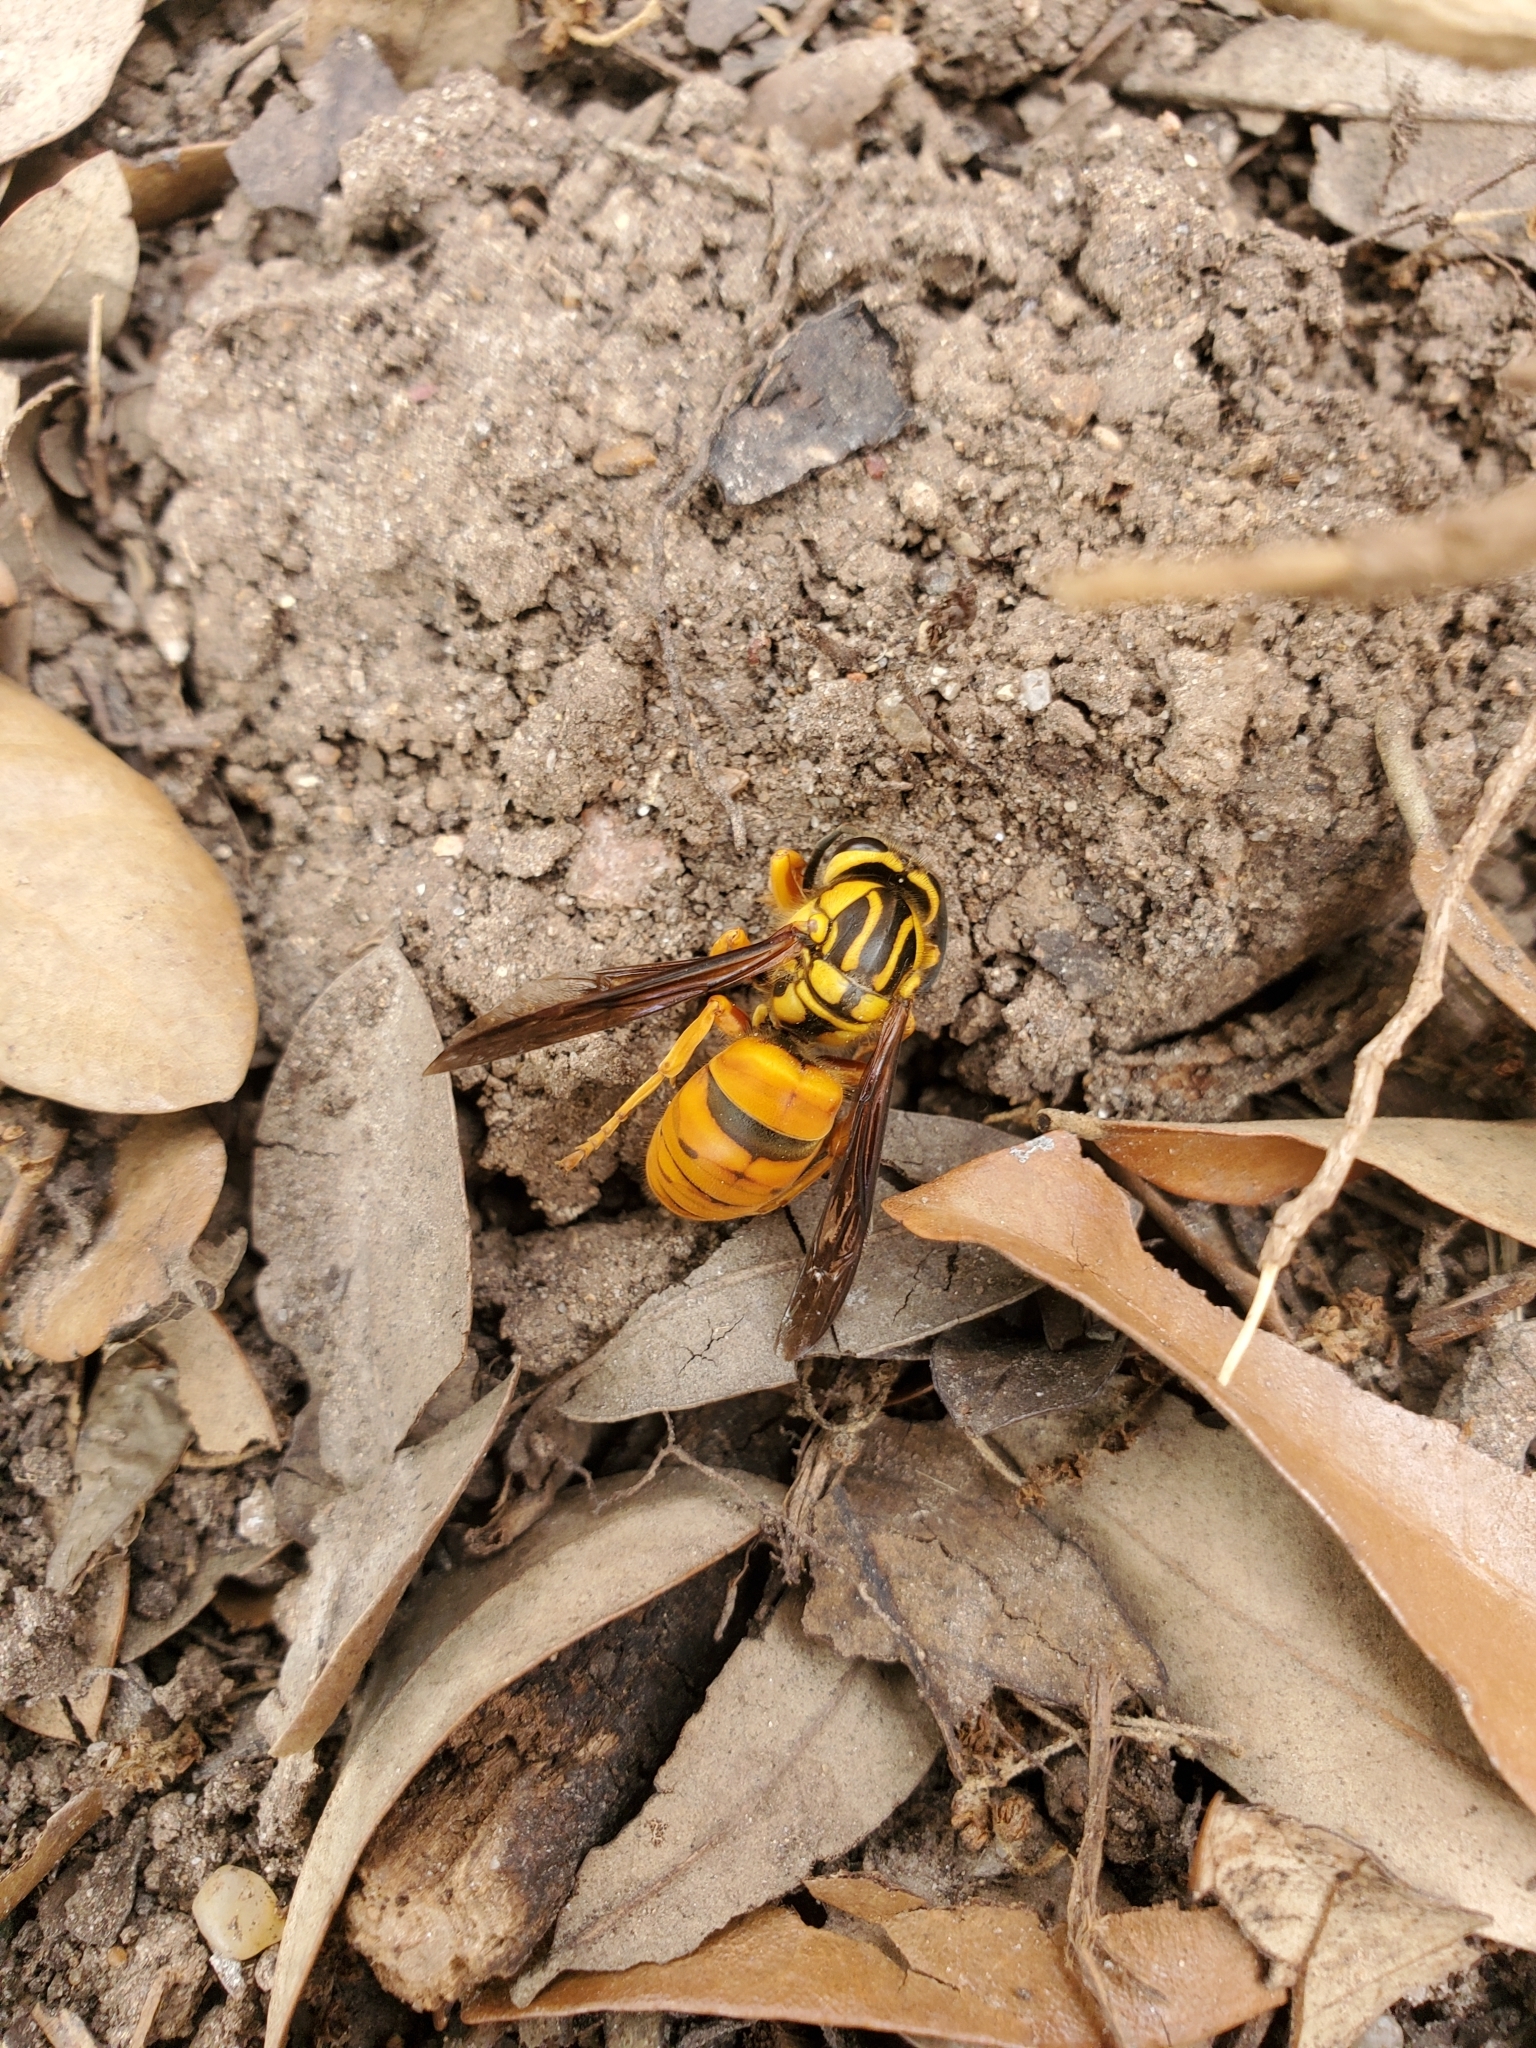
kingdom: Animalia
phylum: Arthropoda
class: Insecta
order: Hymenoptera
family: Vespidae
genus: Vespula
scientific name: Vespula squamosa
